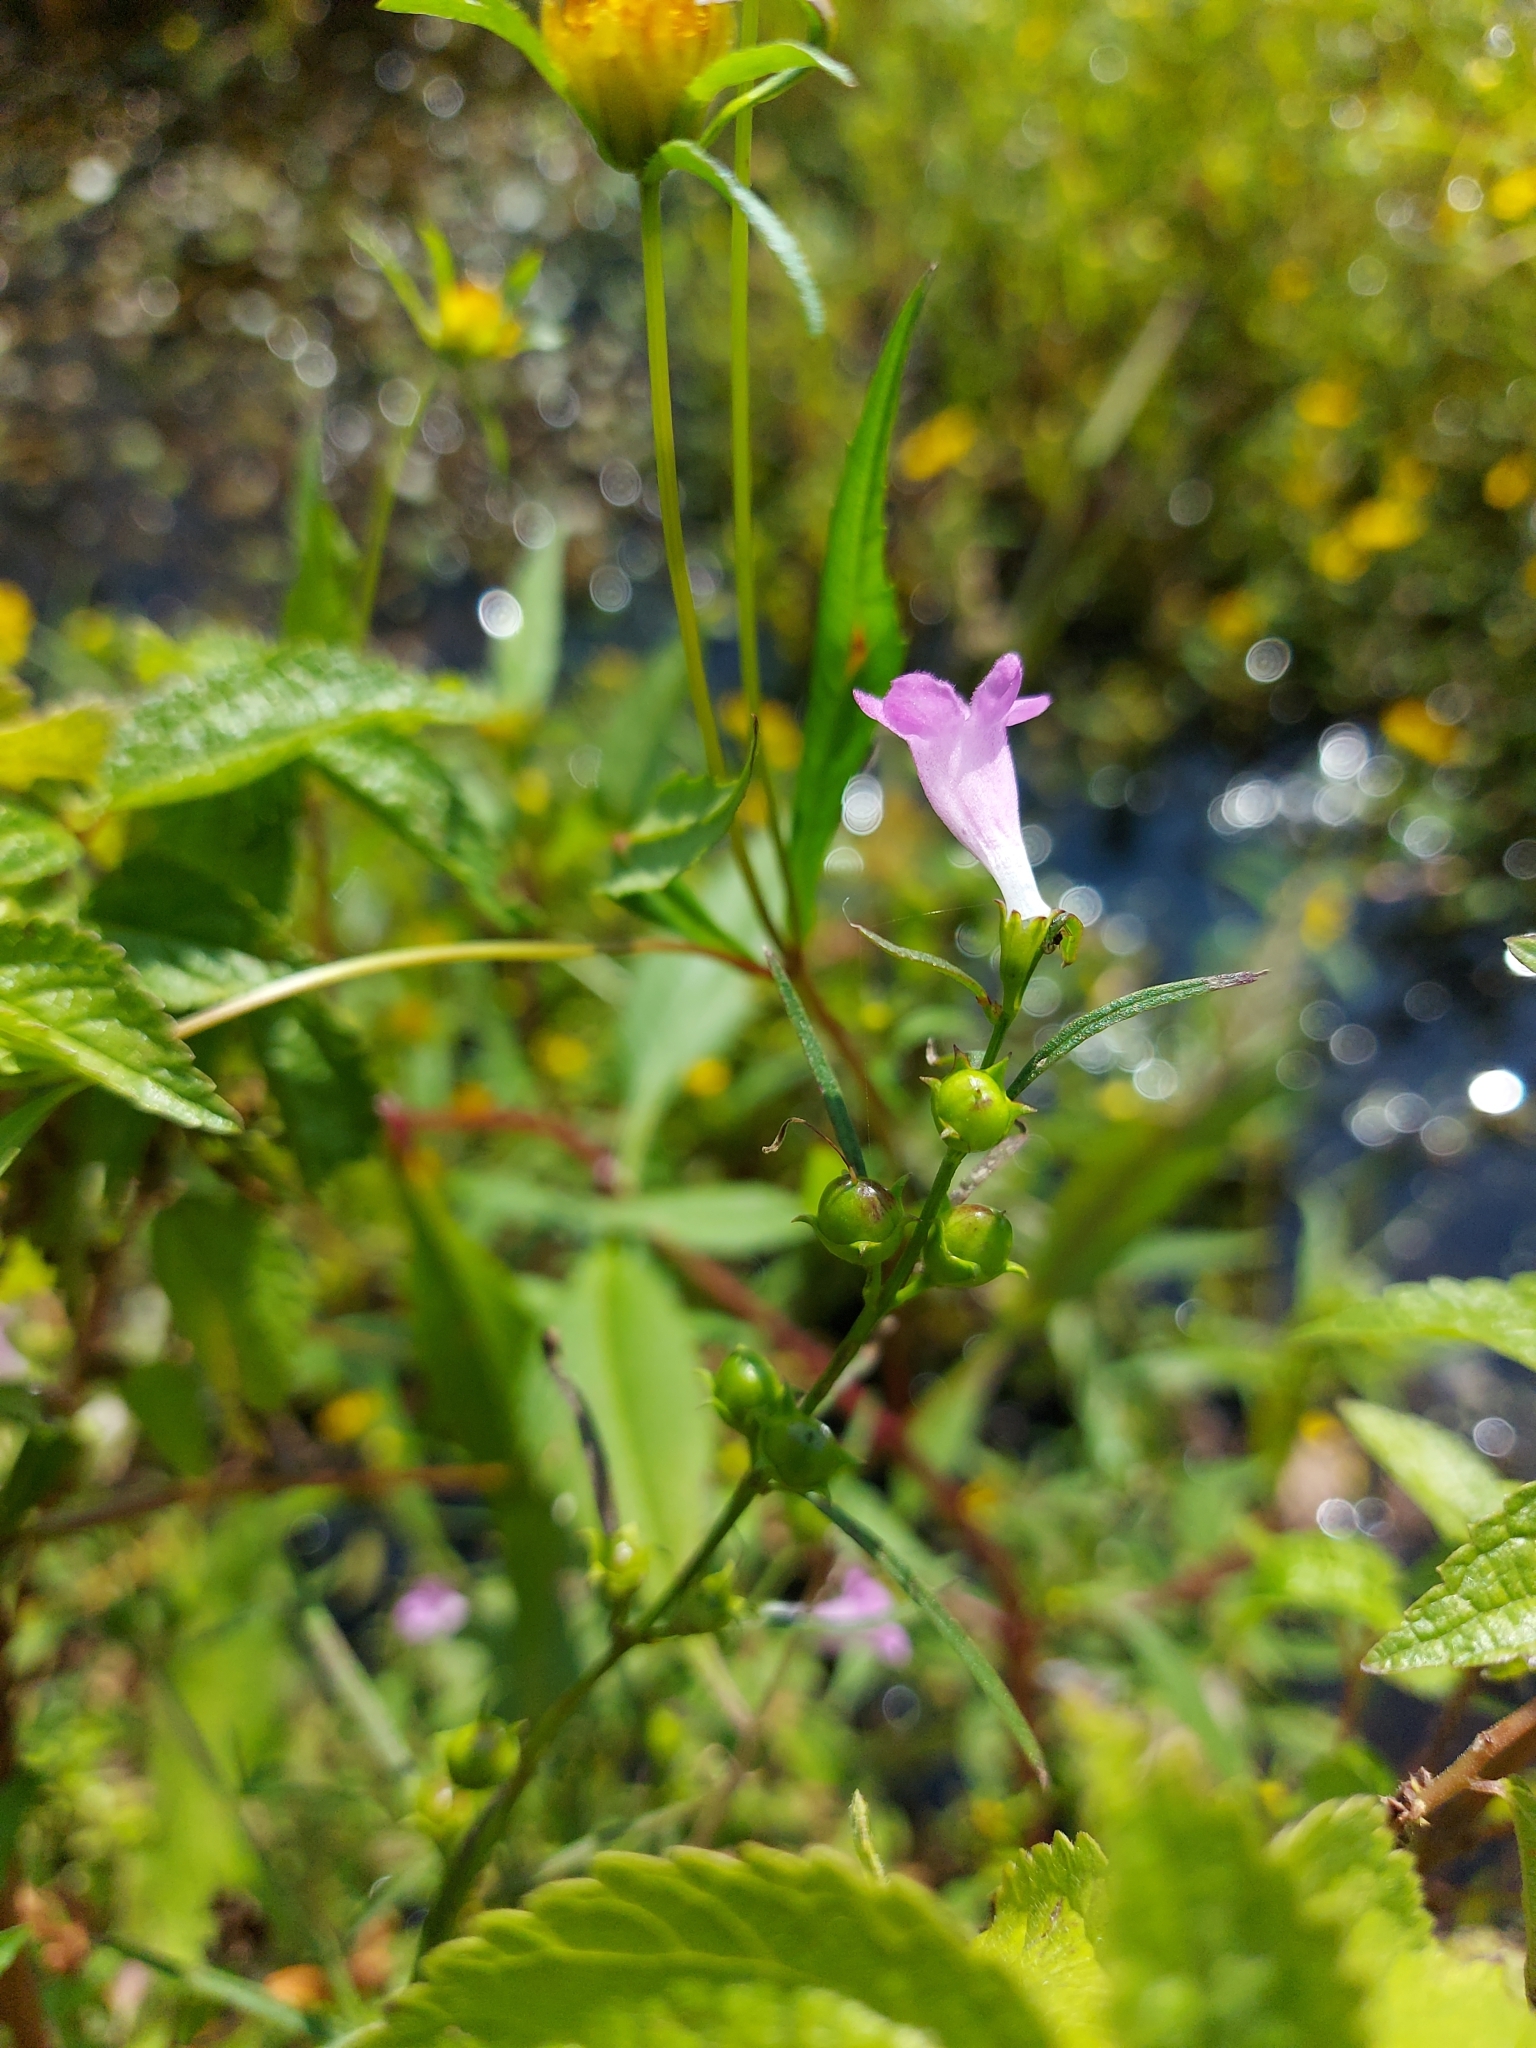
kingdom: Plantae
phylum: Tracheophyta
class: Magnoliopsida
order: Lamiales
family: Orobanchaceae
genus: Agalinis
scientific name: Agalinis purpurea
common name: Purple false foxglove
